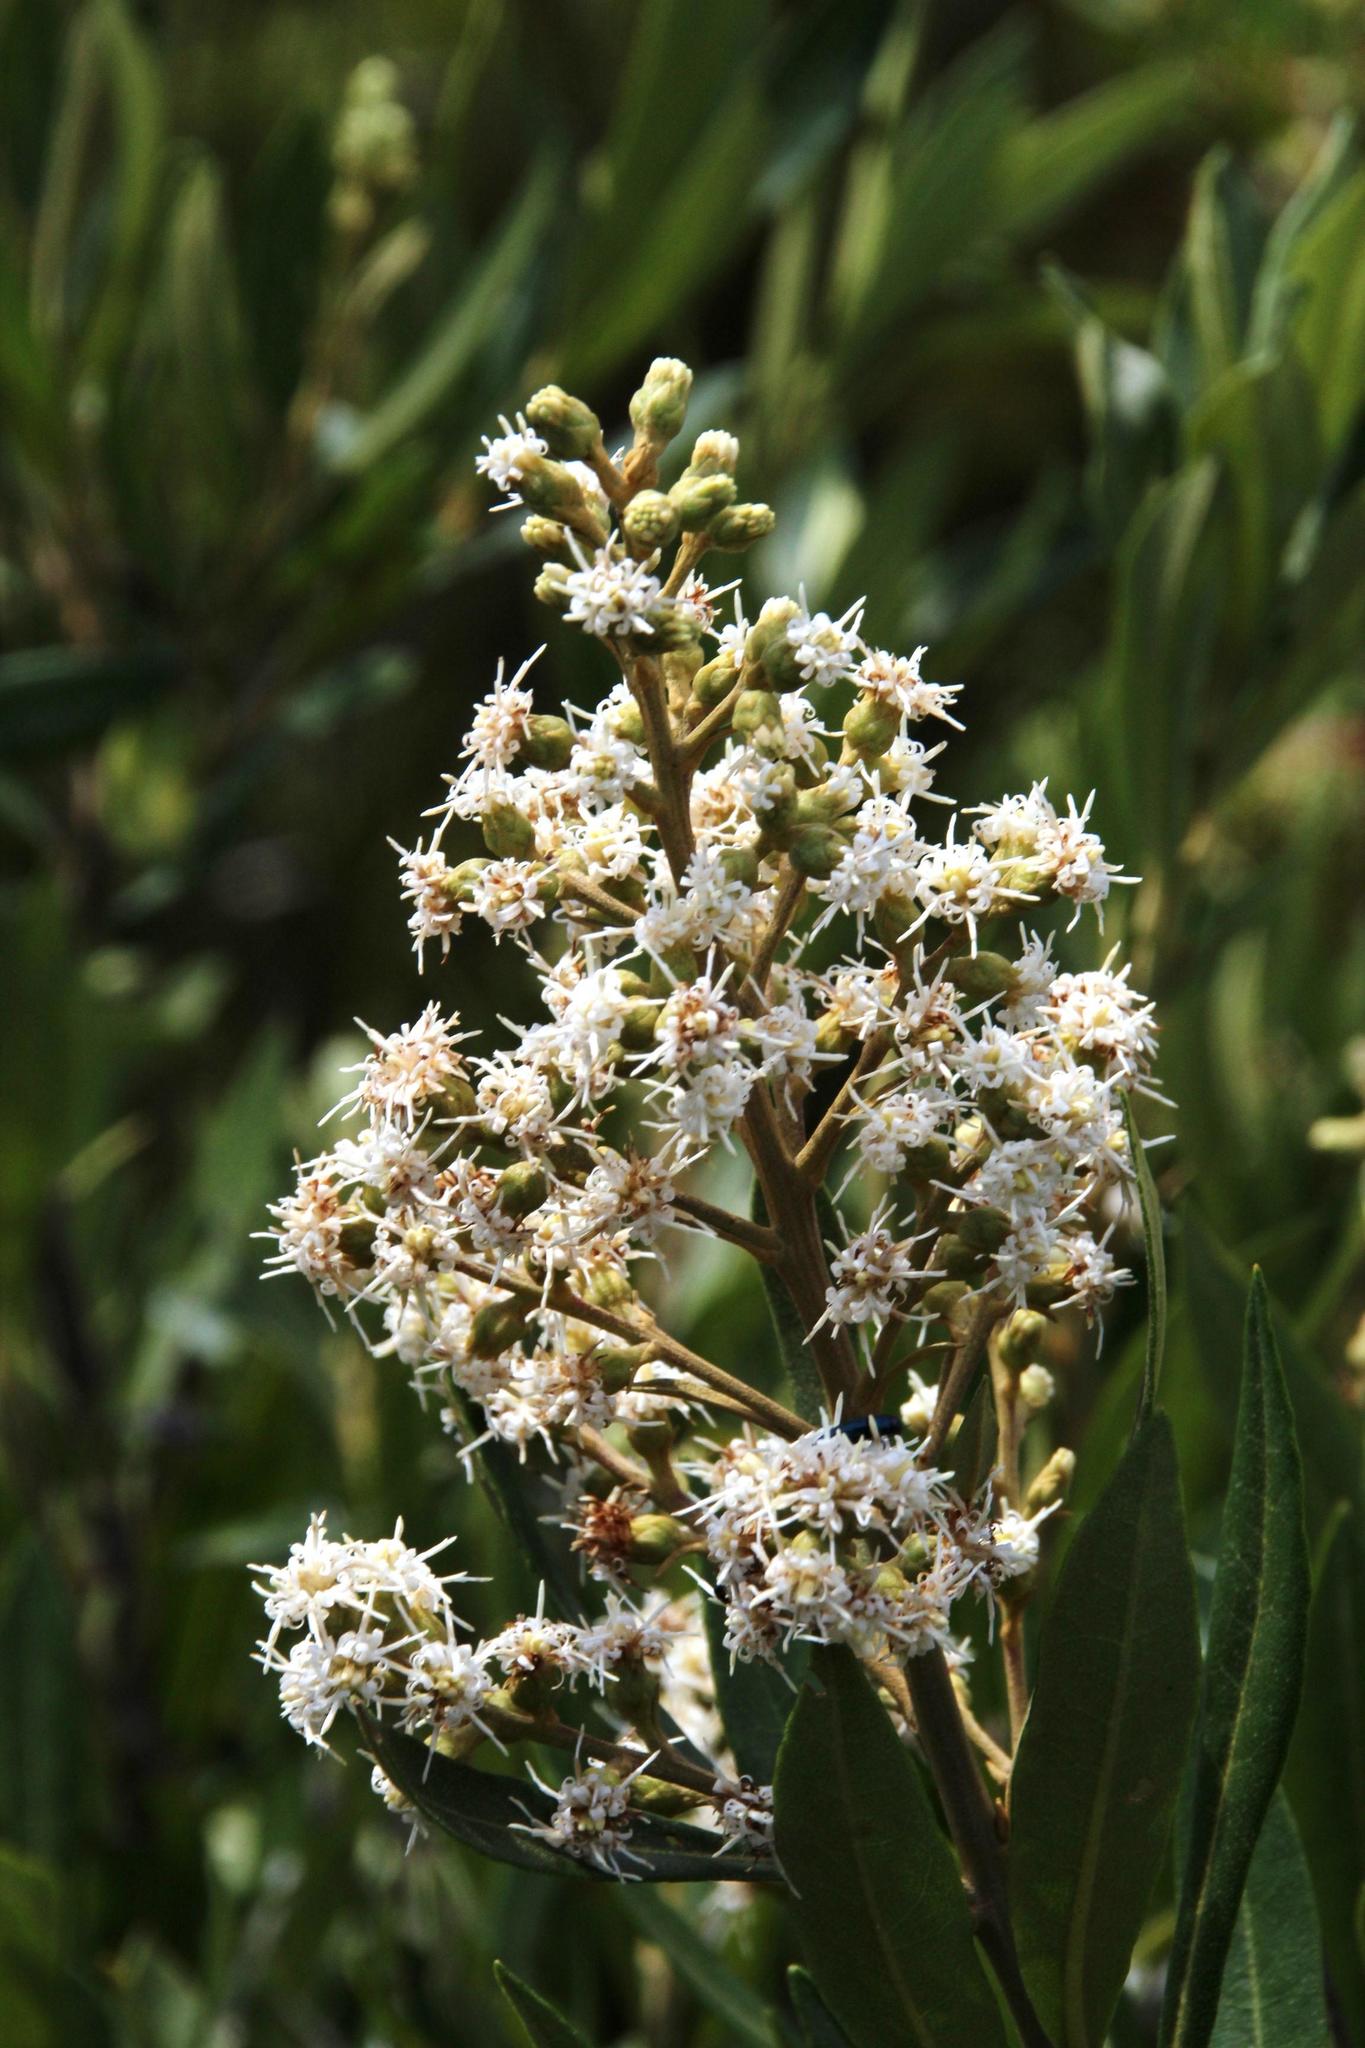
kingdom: Plantae
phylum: Tracheophyta
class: Magnoliopsida
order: Asterales
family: Asteraceae
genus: Brachylaena
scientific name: Brachylaena neriifolia
